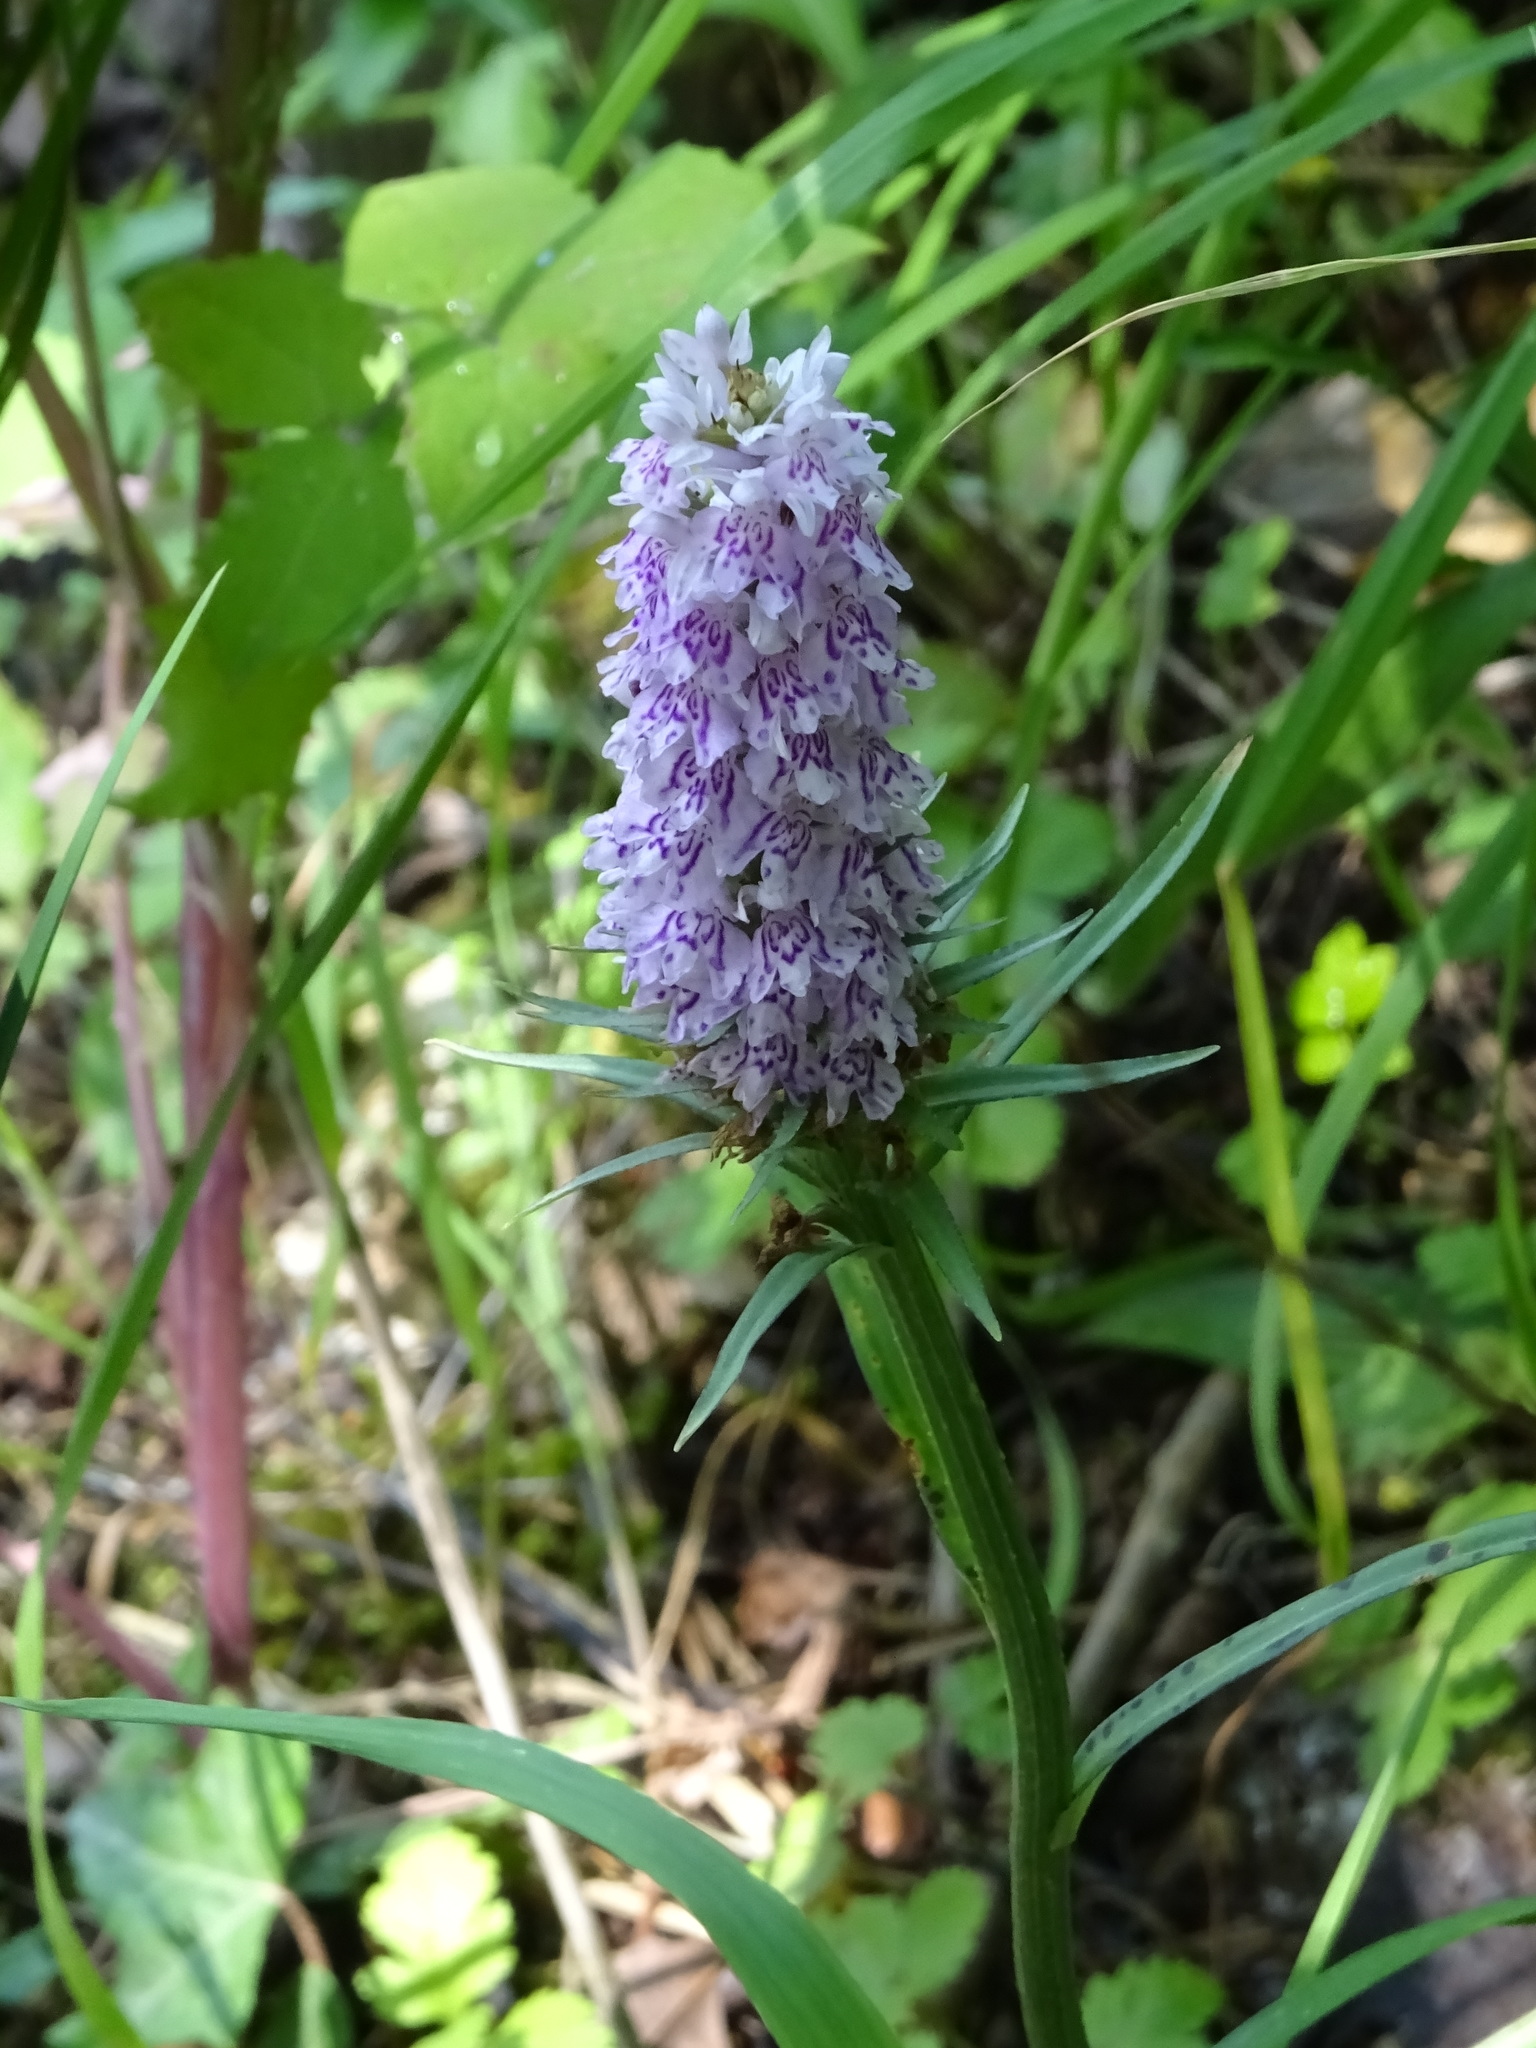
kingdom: Plantae
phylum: Tracheophyta
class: Liliopsida
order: Asparagales
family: Orchidaceae
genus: Dactylorhiza
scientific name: Dactylorhiza maculata
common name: Heath spotted-orchid
